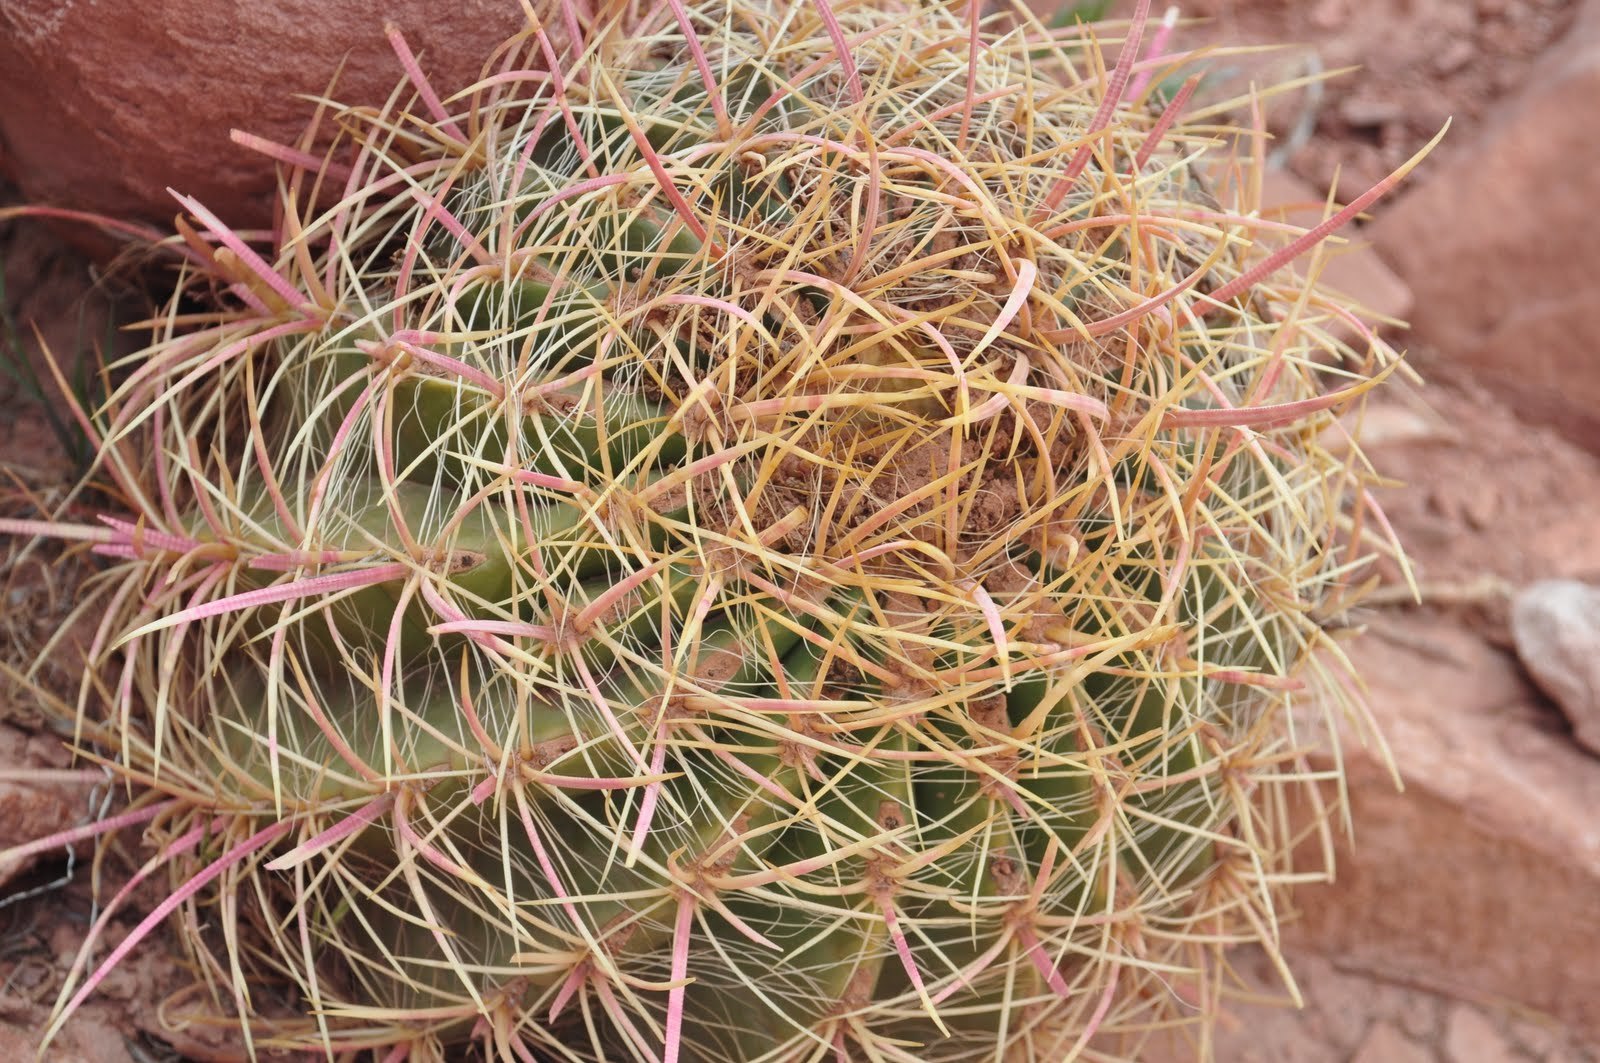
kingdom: Plantae
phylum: Tracheophyta
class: Magnoliopsida
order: Caryophyllales
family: Cactaceae
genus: Ferocactus
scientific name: Ferocactus cylindraceus
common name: California barrel cactus
